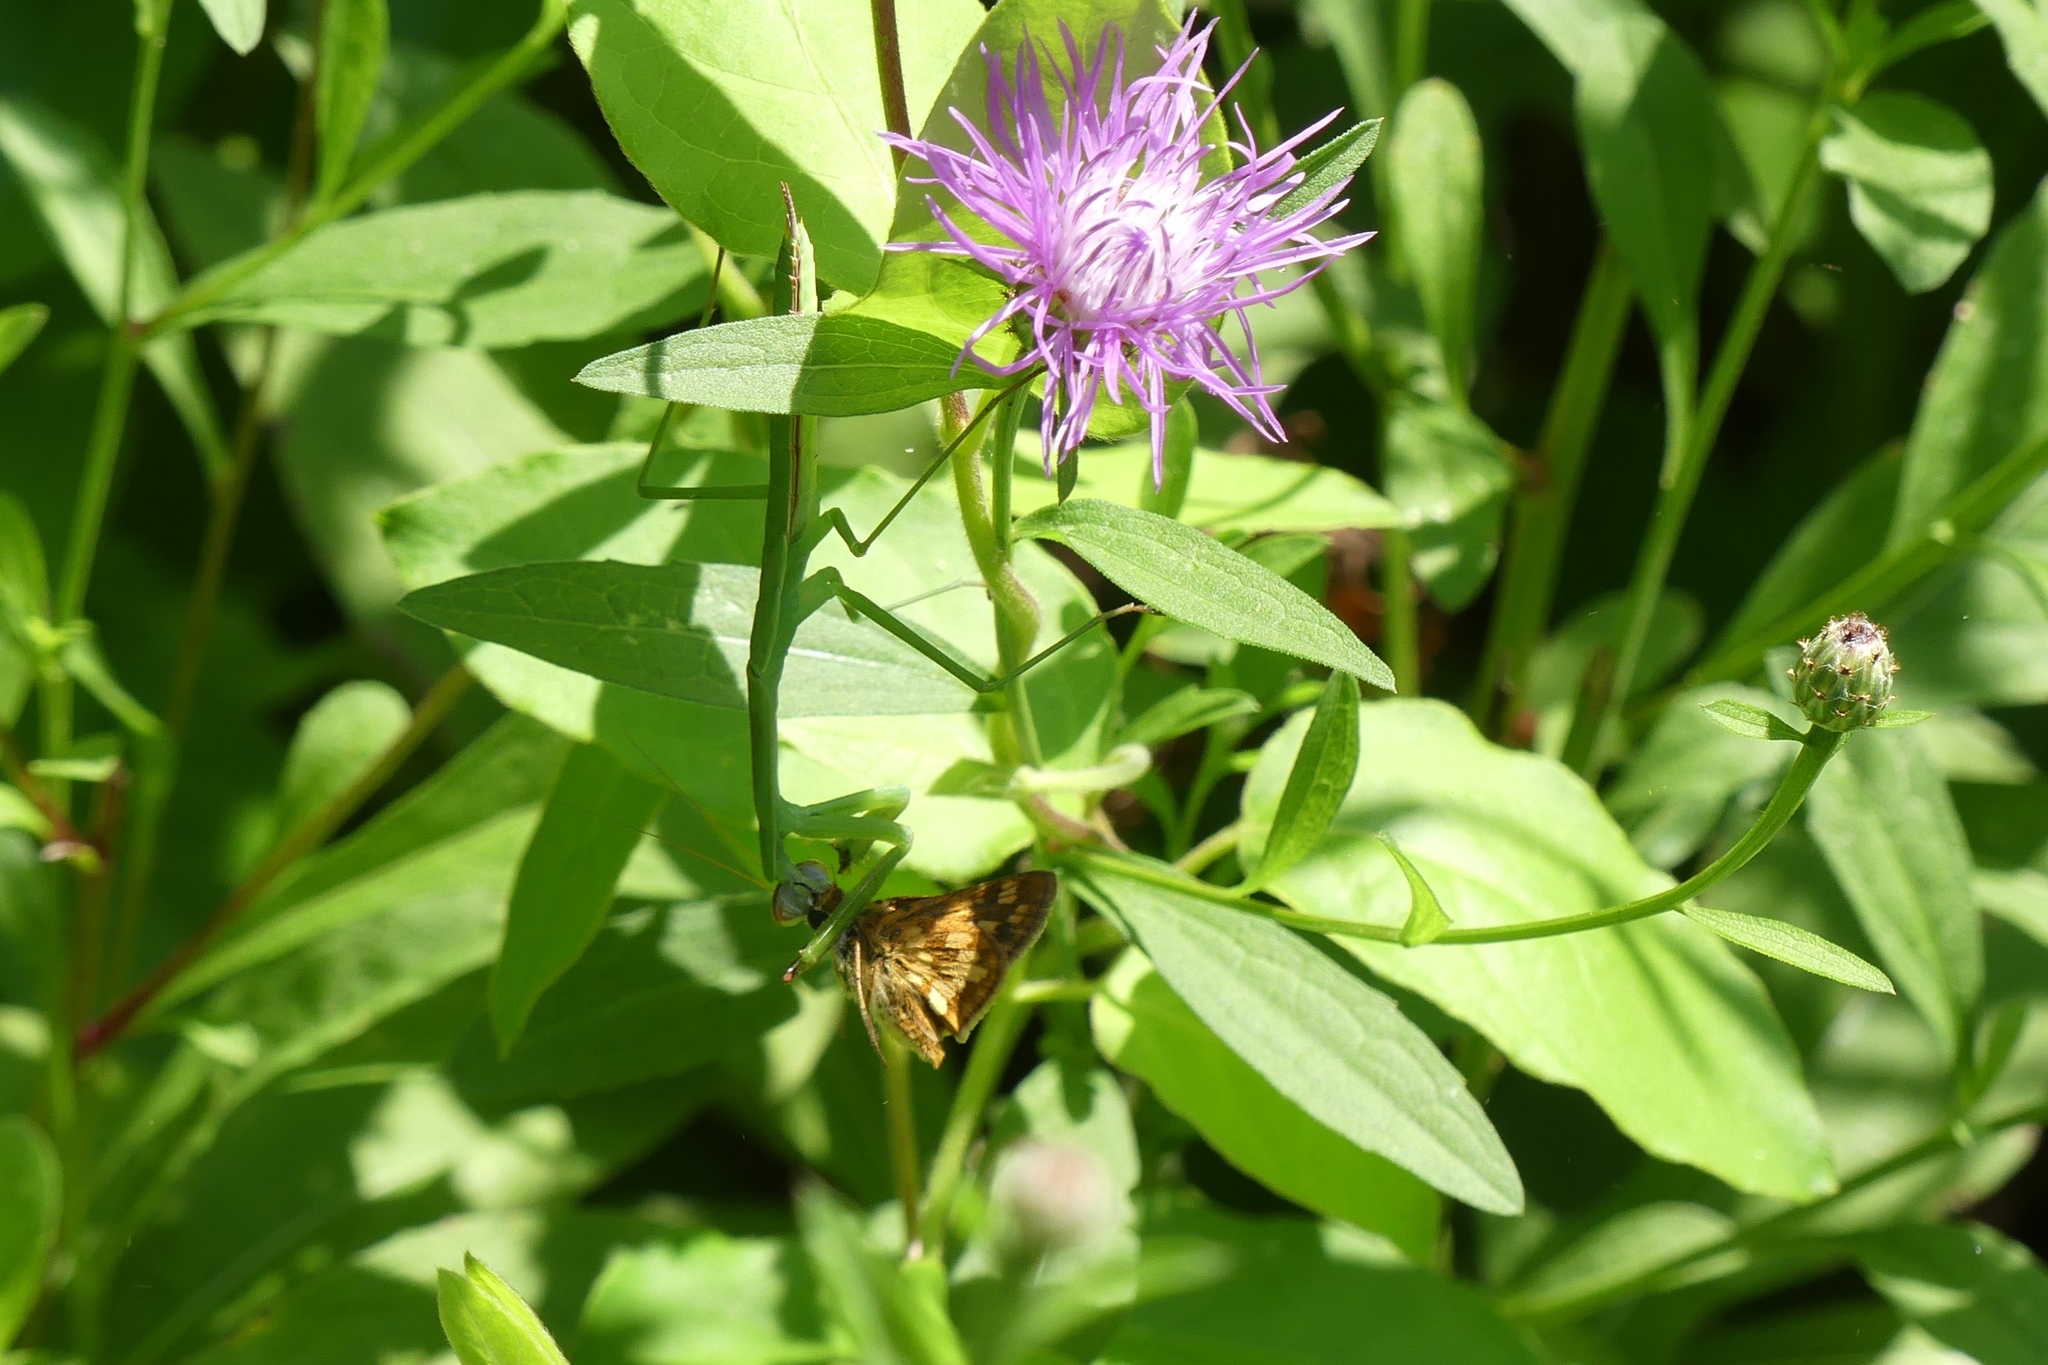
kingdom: Animalia
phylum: Arthropoda
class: Insecta
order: Lepidoptera
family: Hesperiidae
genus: Polites
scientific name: Polites coras
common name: Peck's skipper
